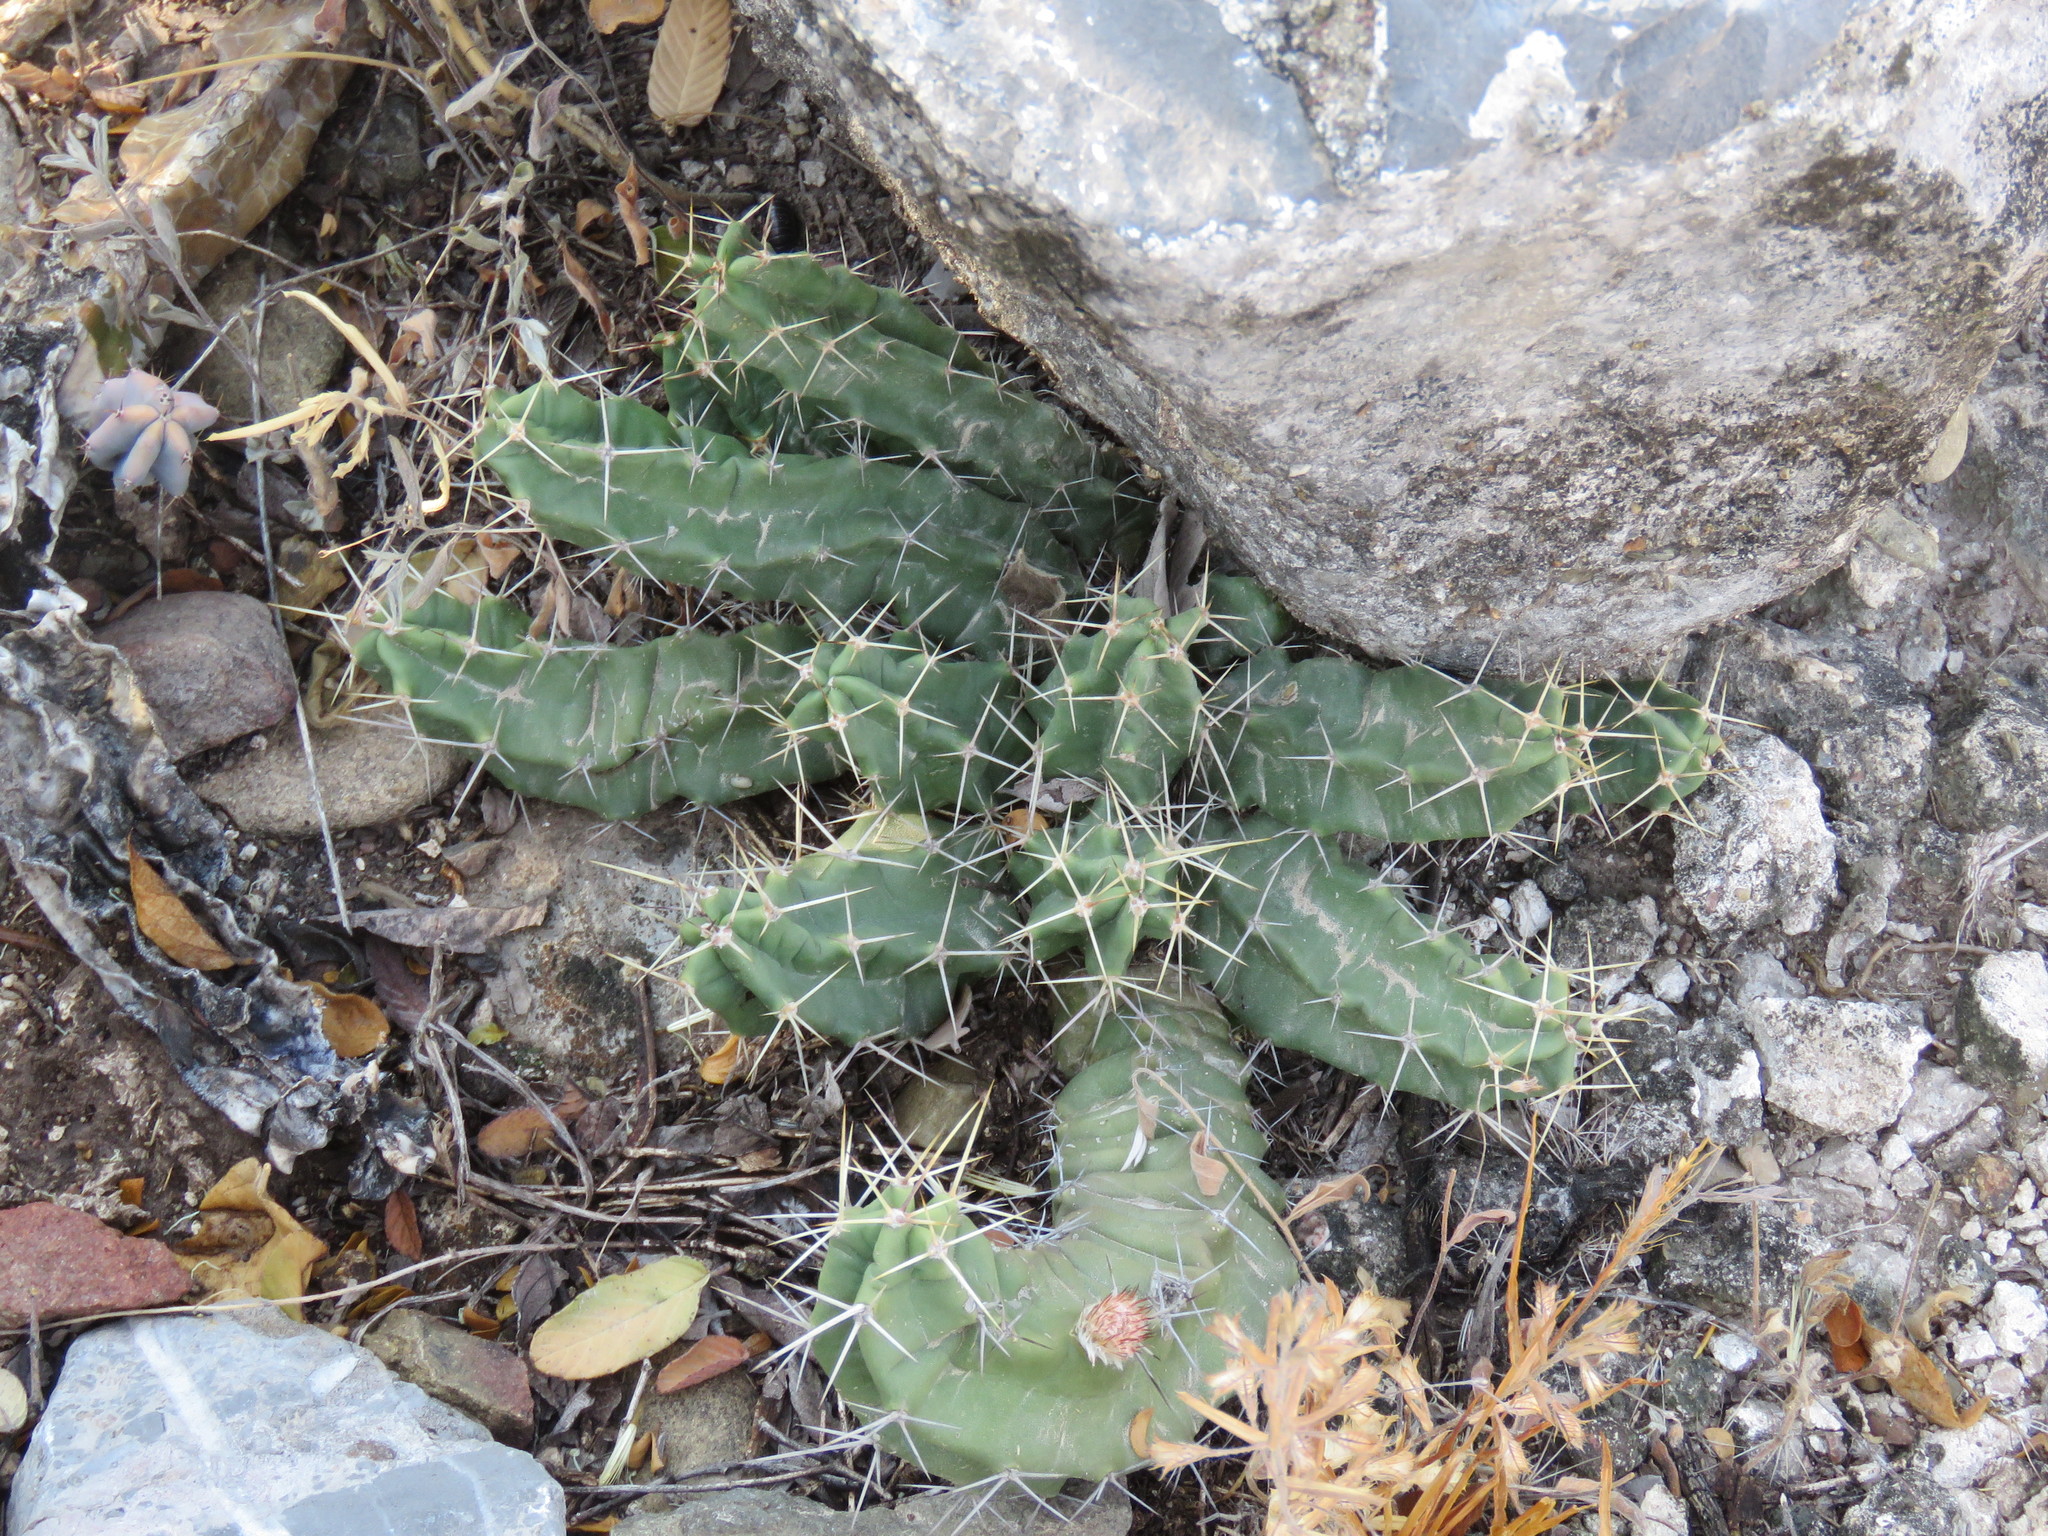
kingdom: Plantae
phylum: Tracheophyta
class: Magnoliopsida
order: Caryophyllales
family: Cactaceae
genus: Echinocereus
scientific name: Echinocereus pentalophus
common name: Ladyfinger cactus
